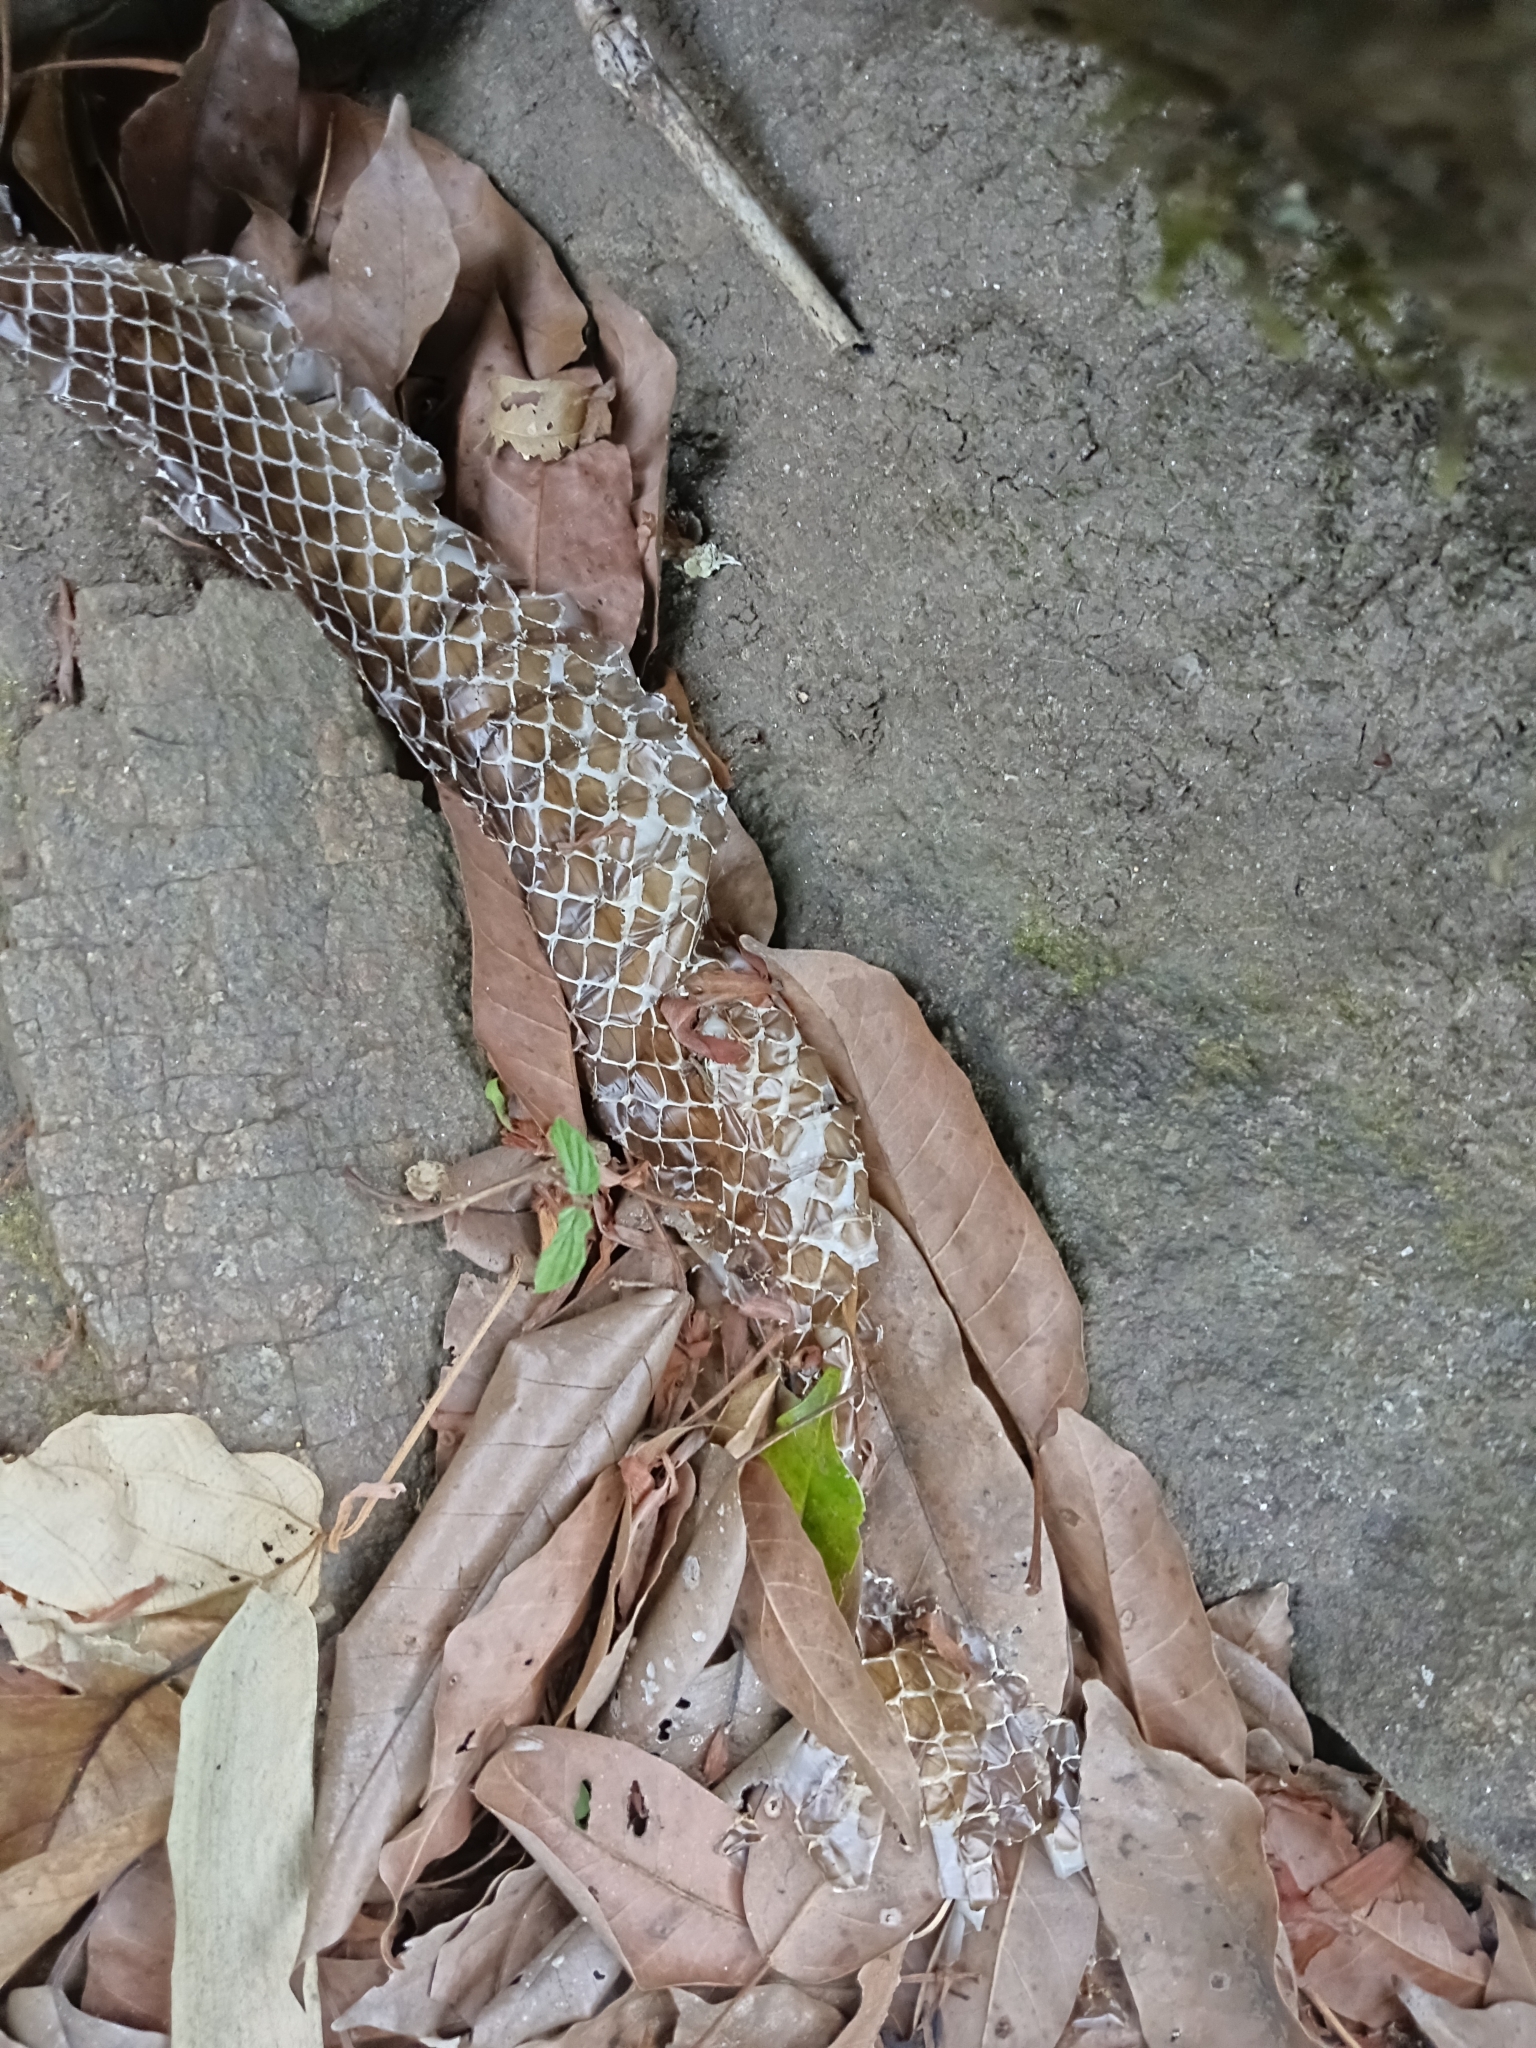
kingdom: Animalia
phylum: Chordata
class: Squamata
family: Colubridae
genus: Ptyas
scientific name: Ptyas mucosa
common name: Oriental ratsnake
